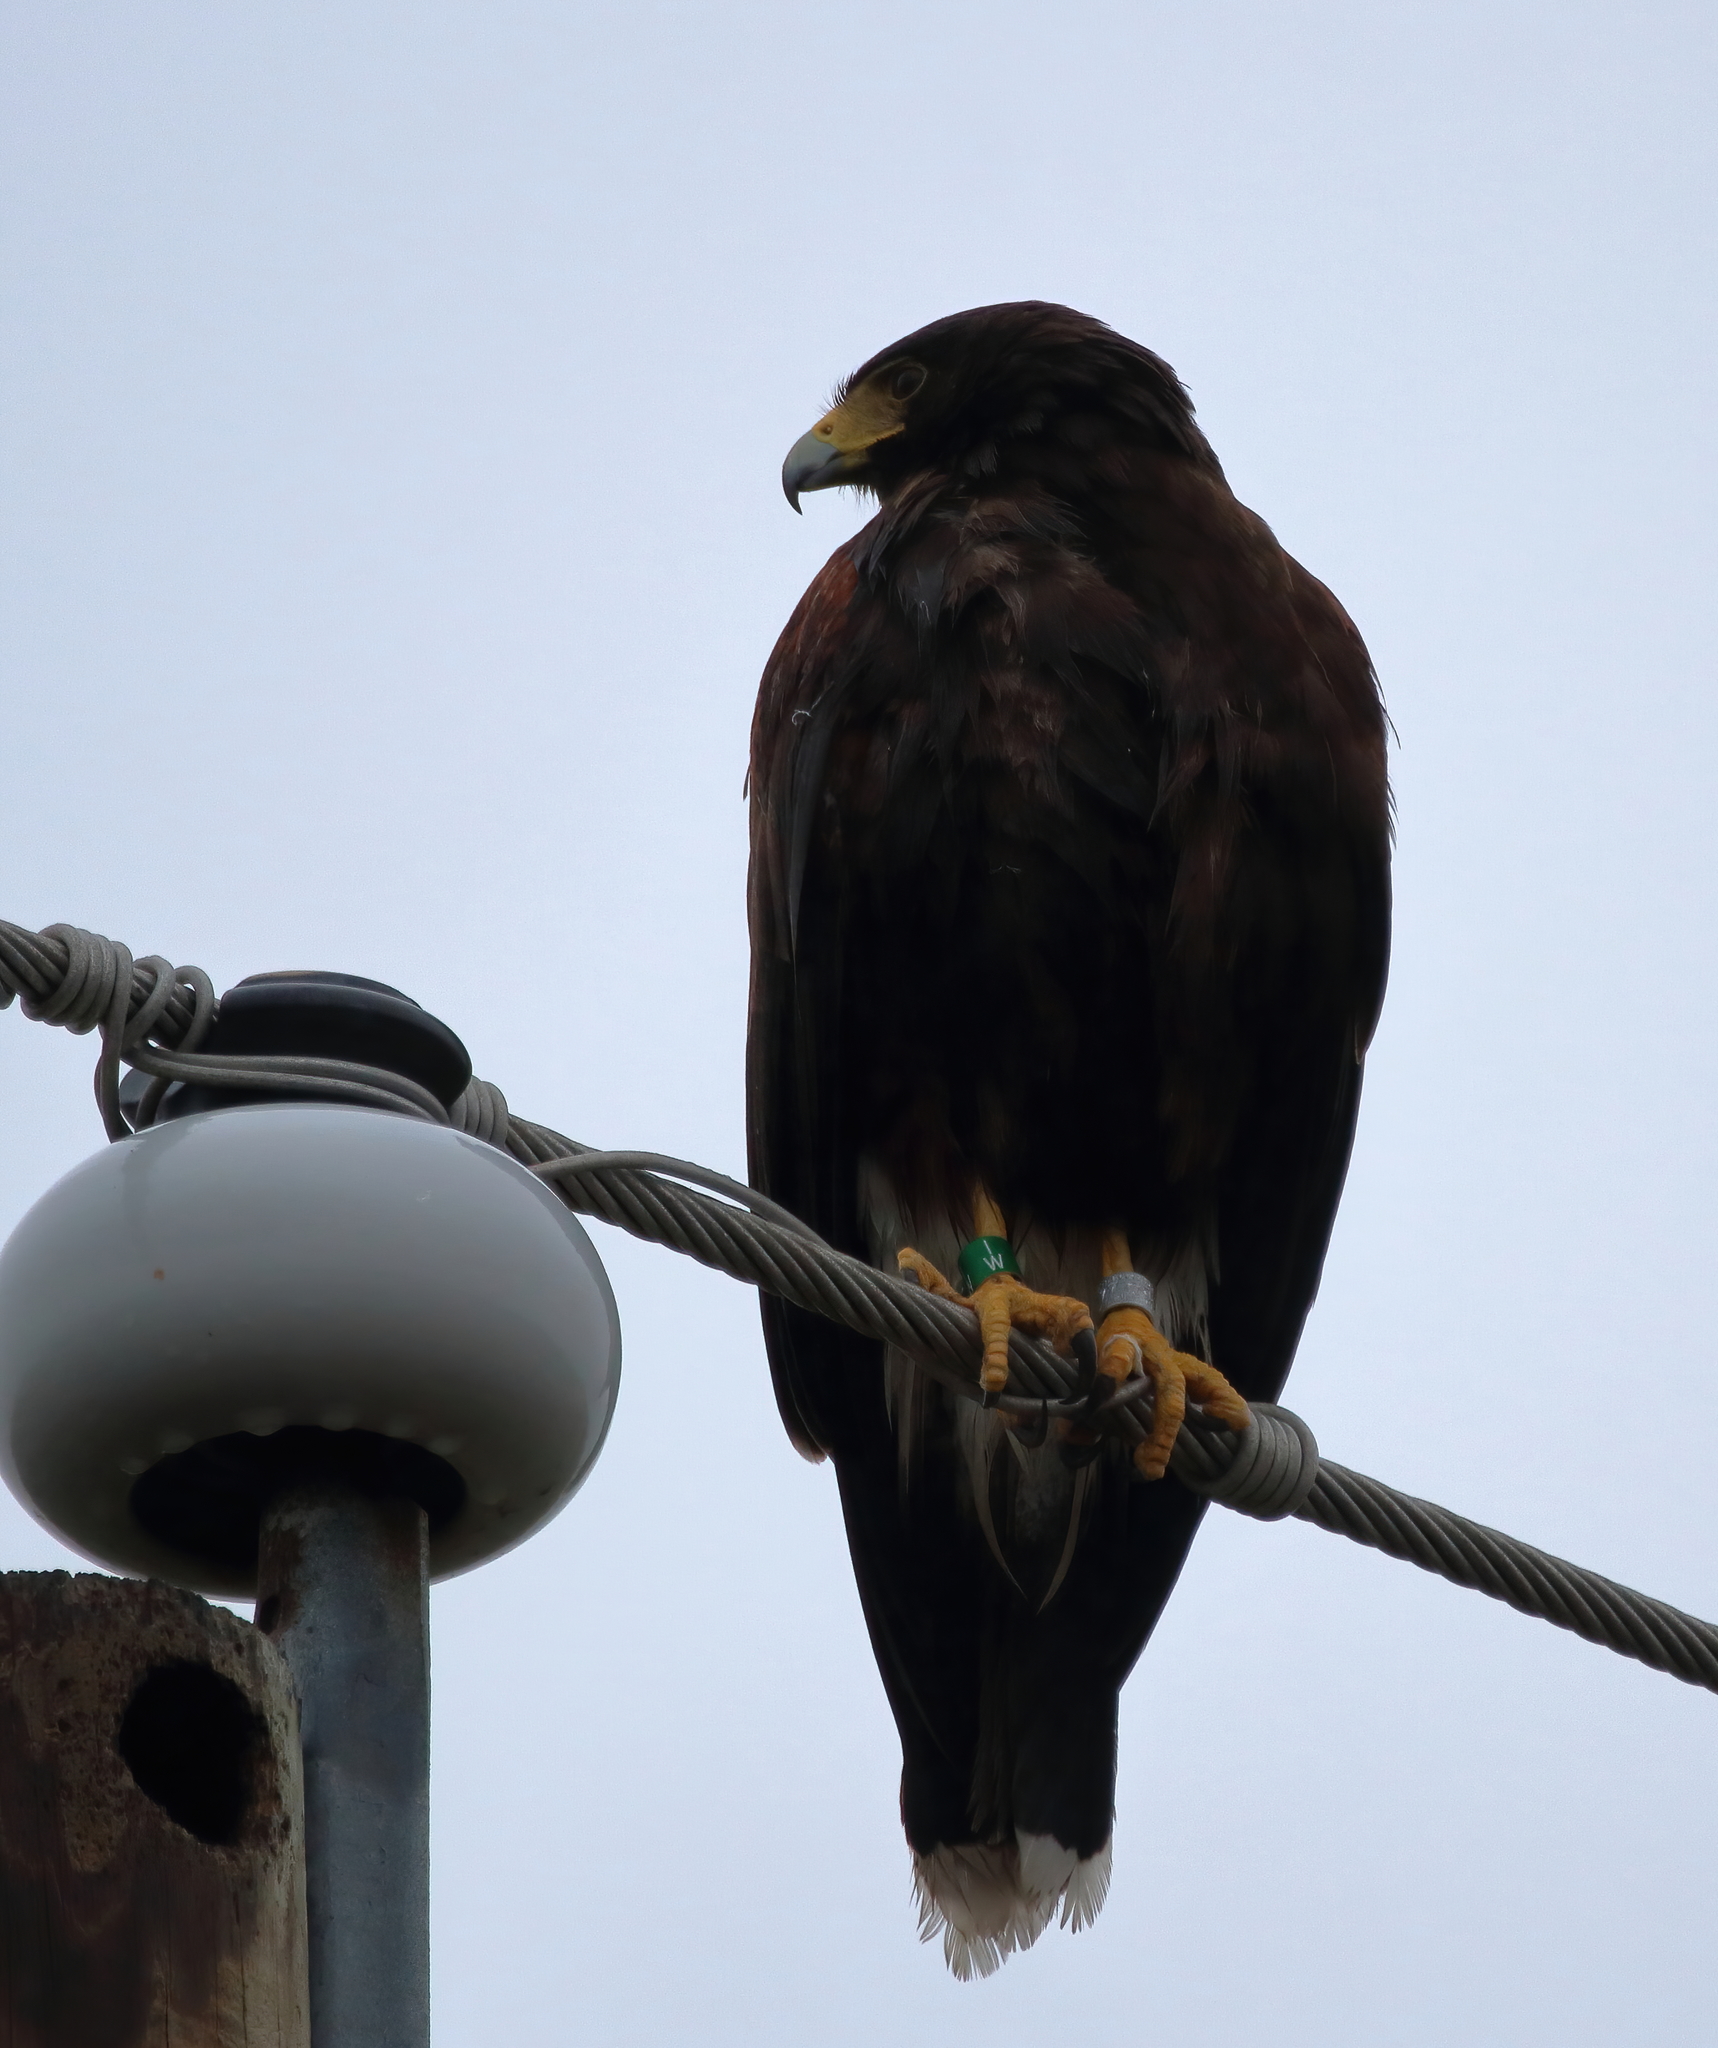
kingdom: Animalia
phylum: Chordata
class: Aves
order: Accipitriformes
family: Accipitridae
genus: Parabuteo
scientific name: Parabuteo unicinctus
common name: Harris's hawk
